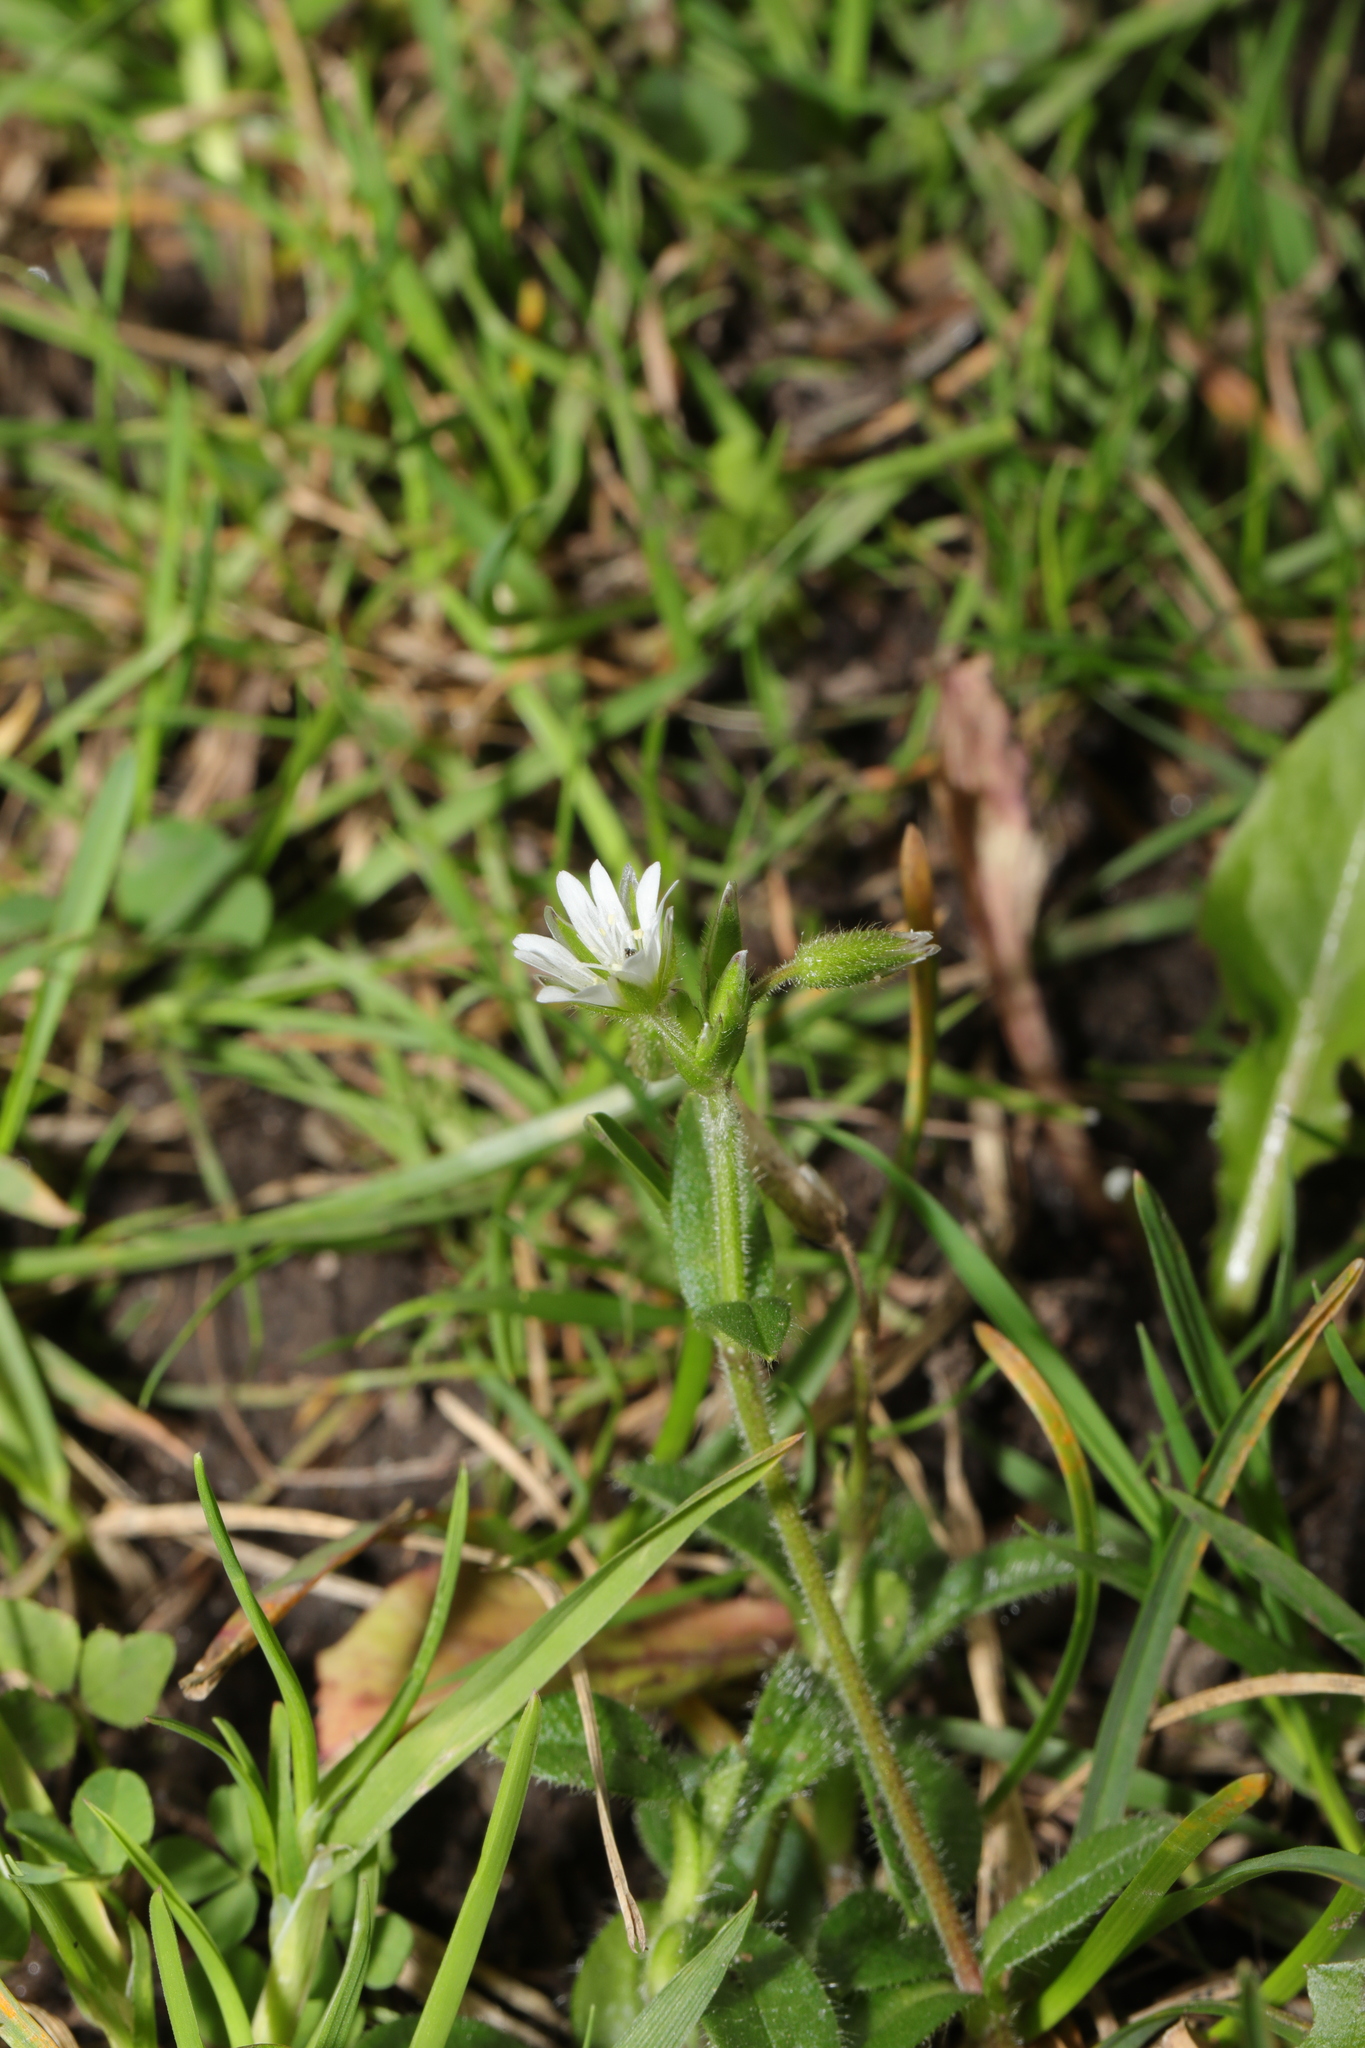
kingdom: Plantae
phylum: Tracheophyta
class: Magnoliopsida
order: Caryophyllales
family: Caryophyllaceae
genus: Cerastium
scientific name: Cerastium fontanum
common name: Common mouse-ear
